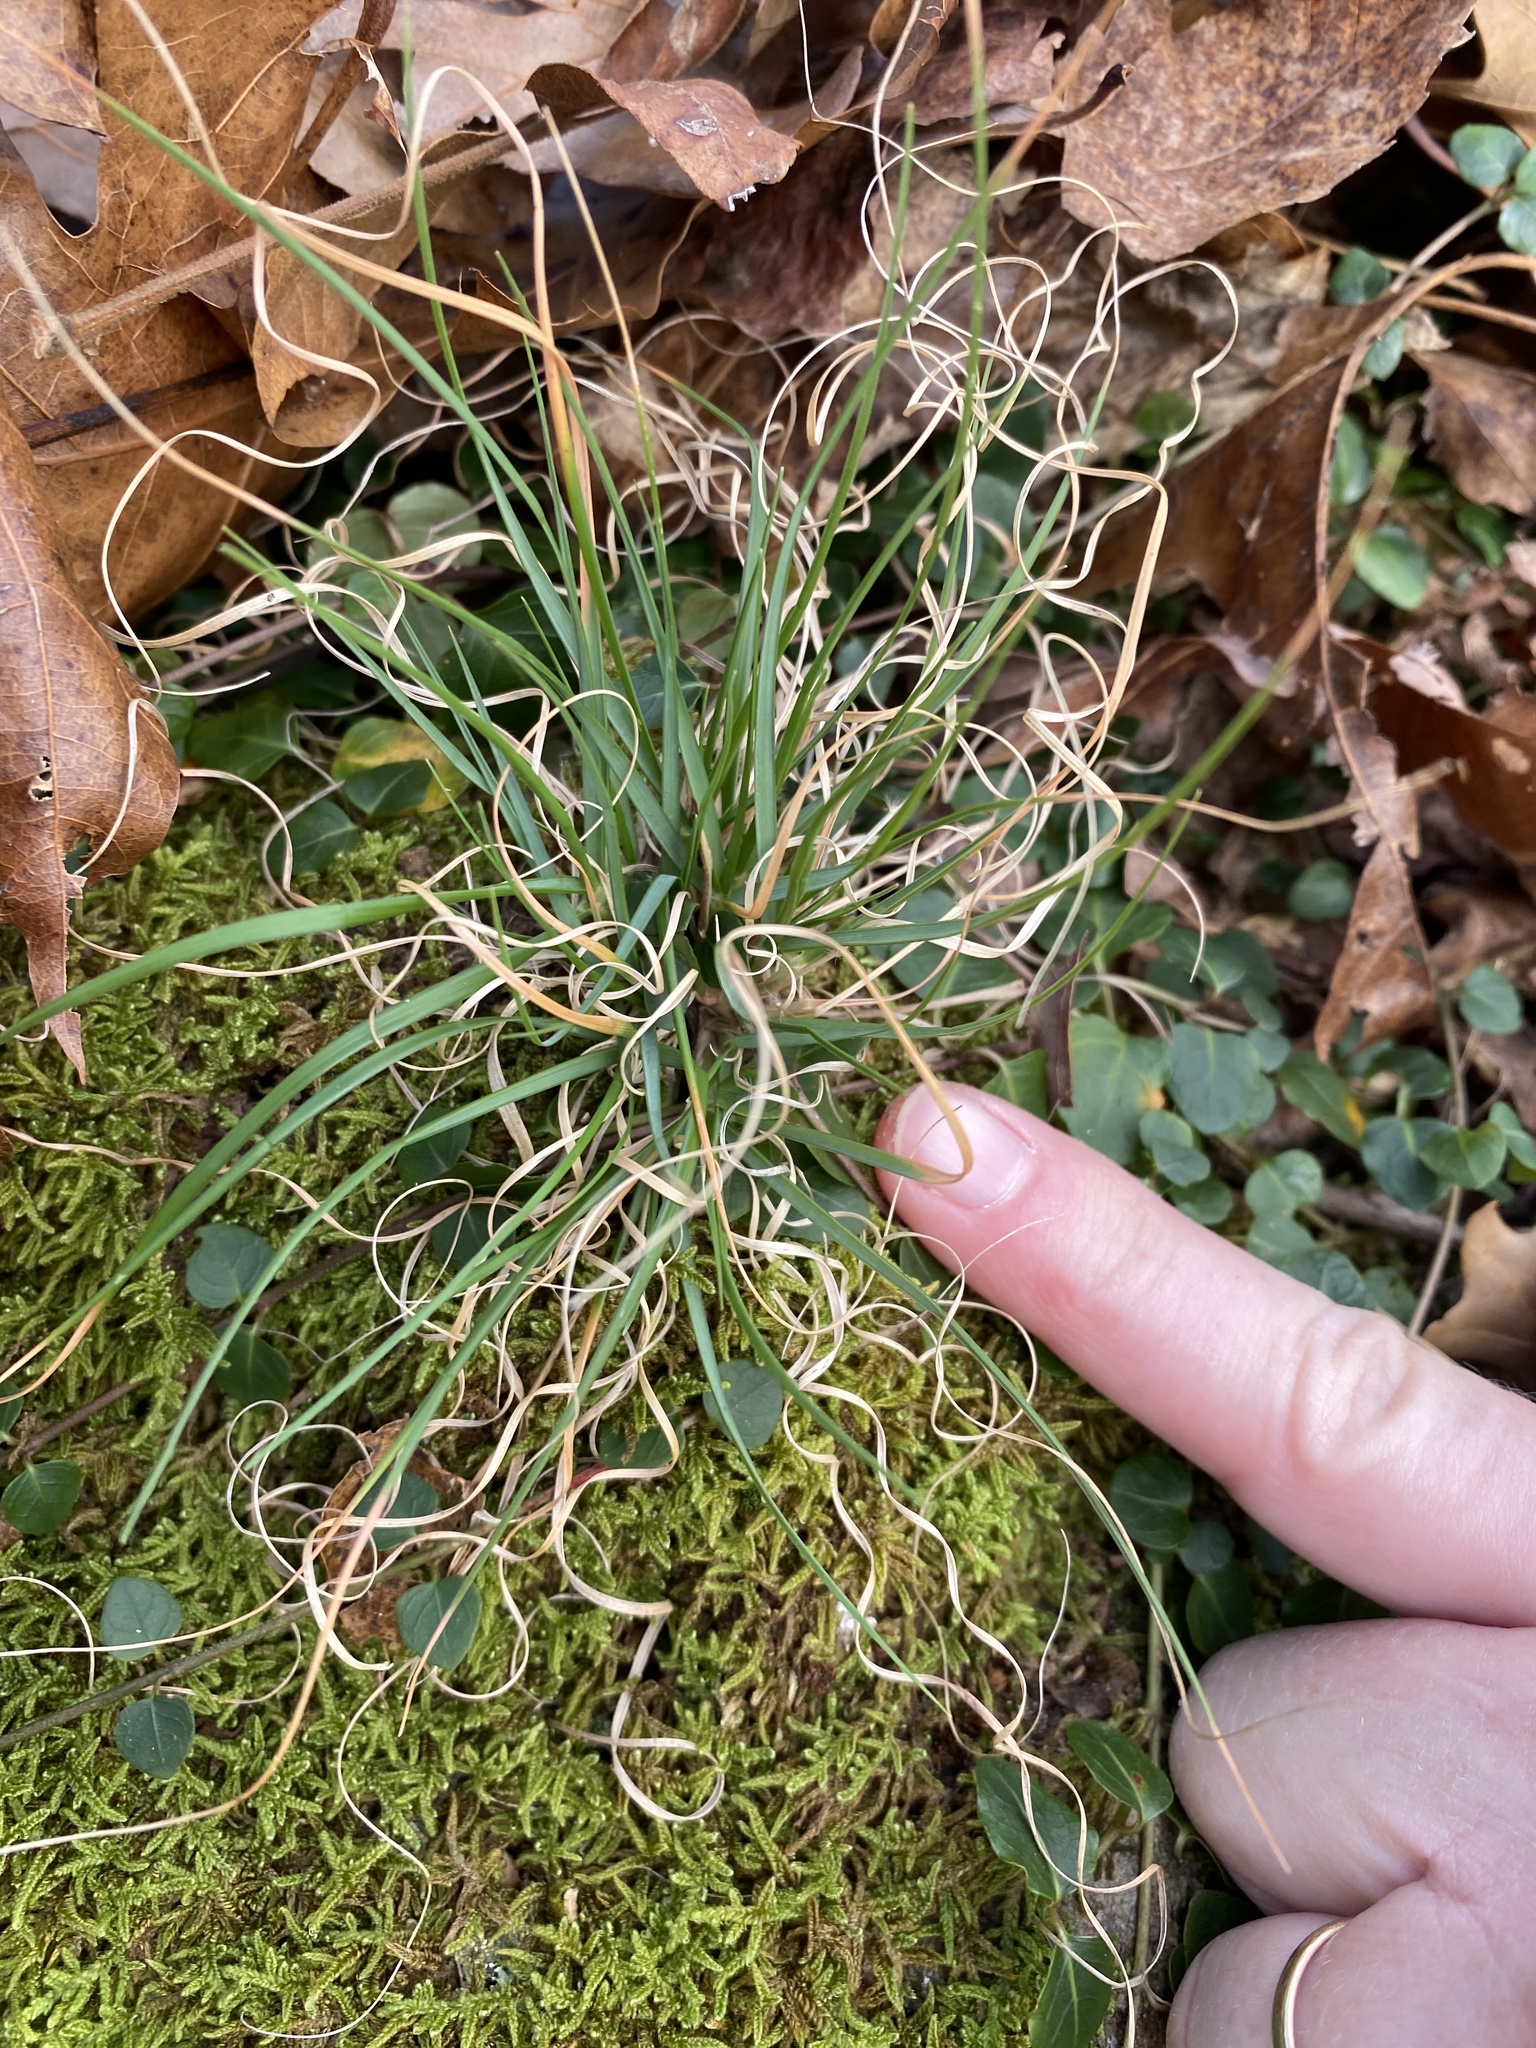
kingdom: Plantae
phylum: Tracheophyta
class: Liliopsida
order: Poales
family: Poaceae
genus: Danthonia
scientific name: Danthonia spicata
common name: Common wild oatgrass
